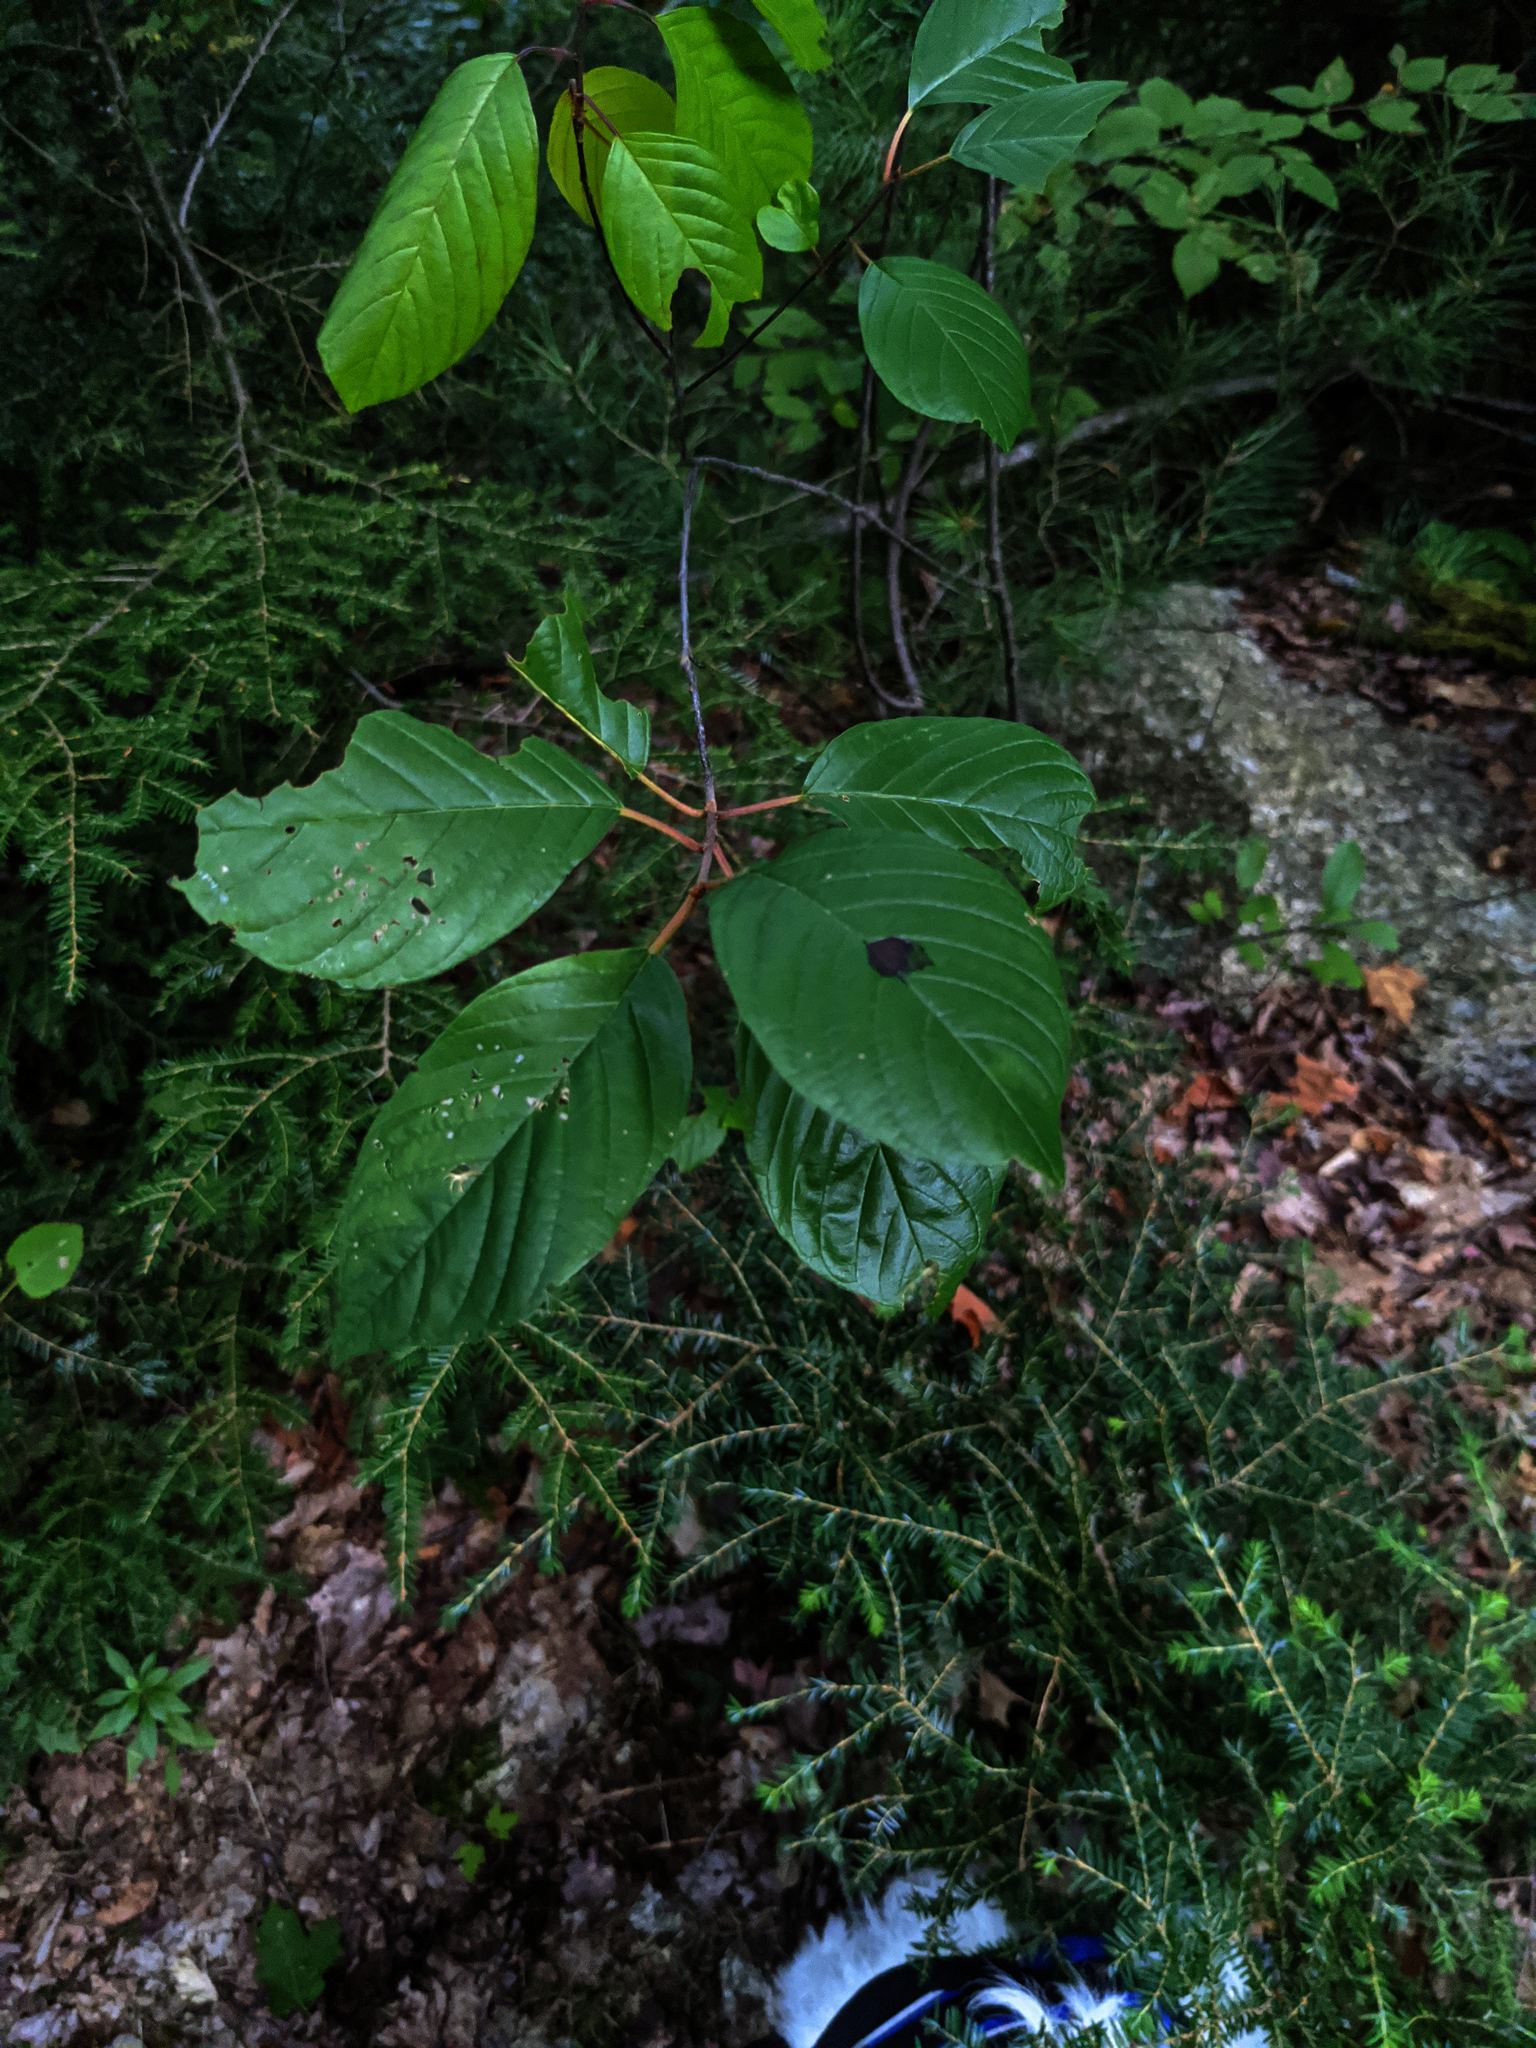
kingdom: Plantae
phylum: Tracheophyta
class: Magnoliopsida
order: Rosales
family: Rhamnaceae
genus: Frangula
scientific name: Frangula alnus
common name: Alder buckthorn
